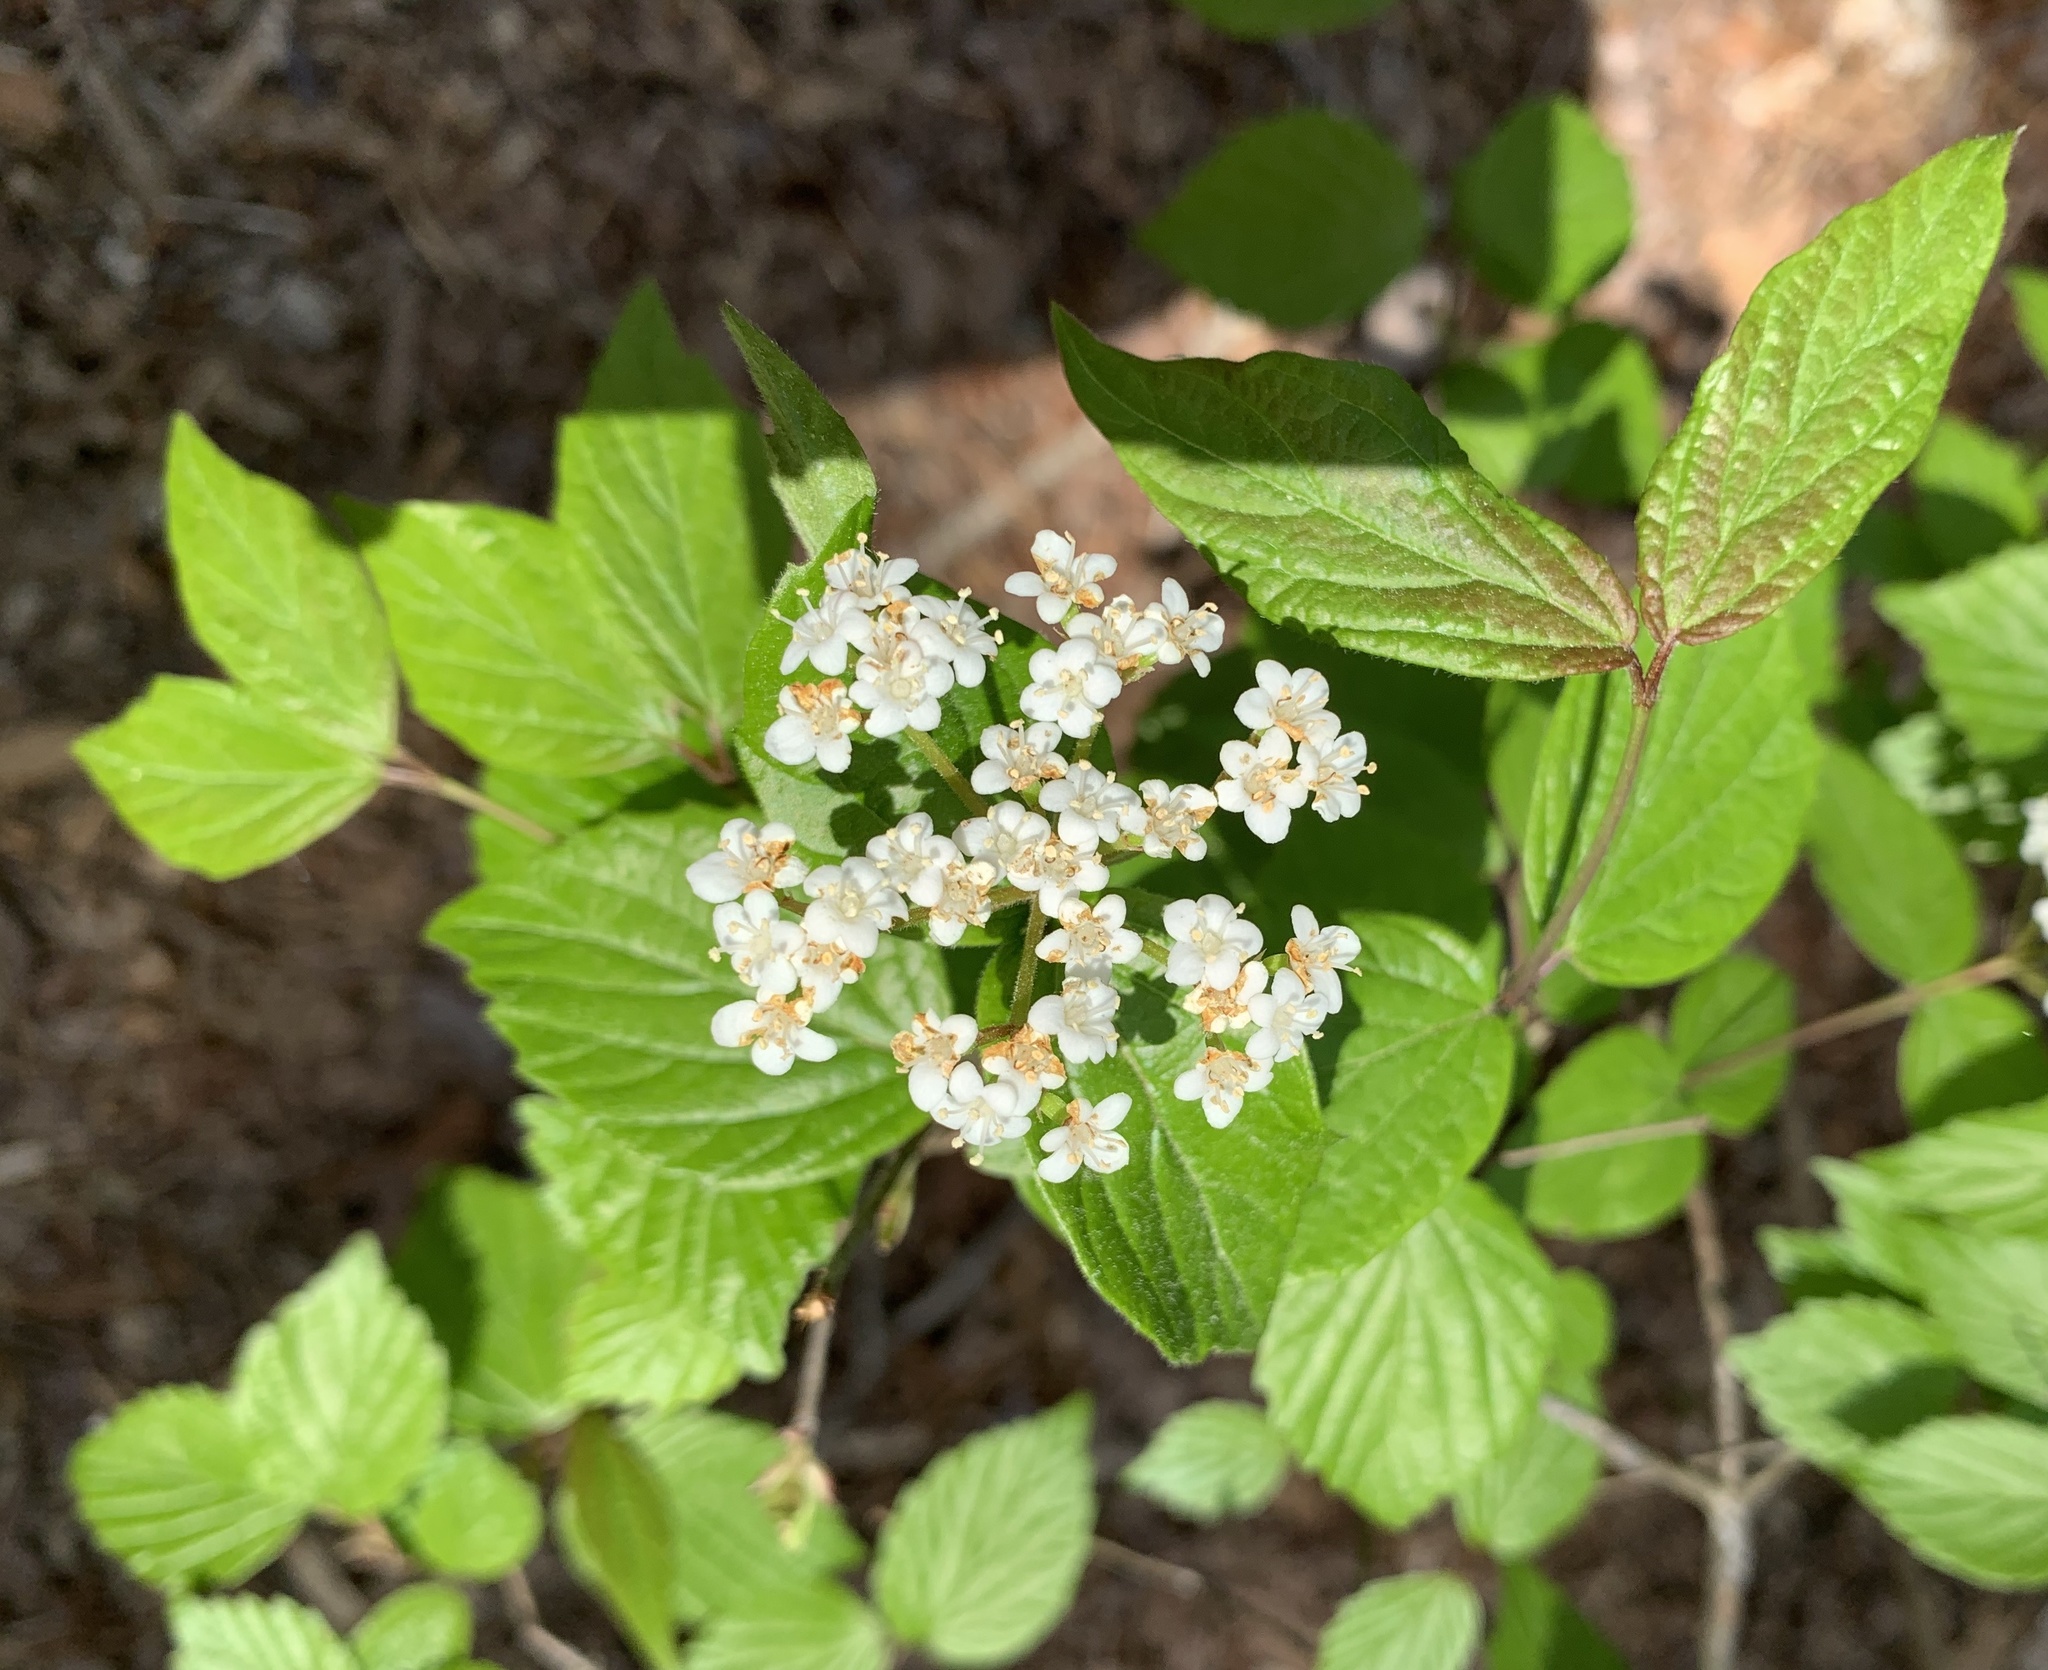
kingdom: Plantae
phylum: Tracheophyta
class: Magnoliopsida
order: Dipsacales
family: Viburnaceae
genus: Viburnum
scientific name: Viburnum rafinesqueanum
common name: Downy arrow-wood
